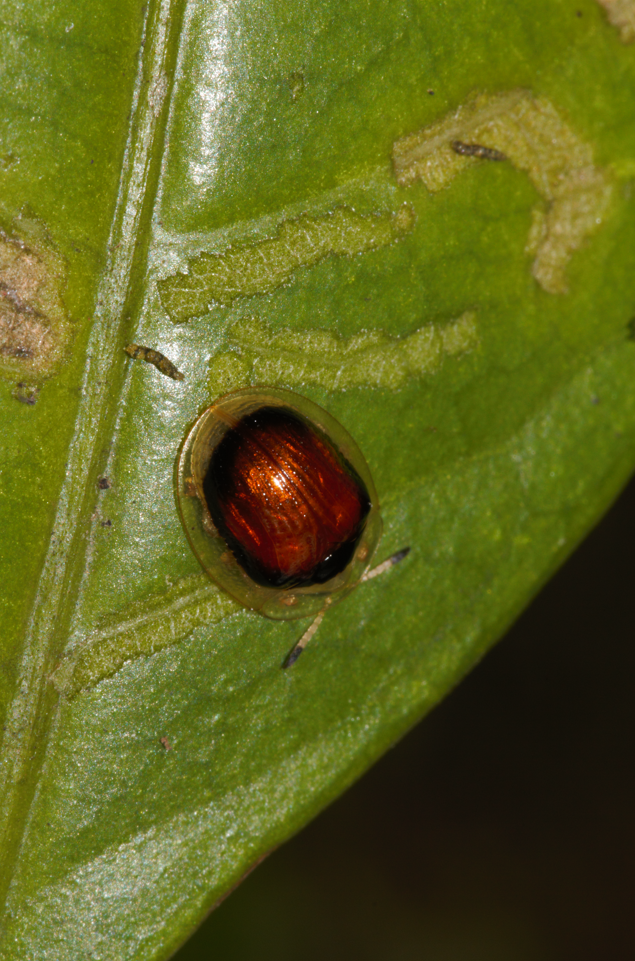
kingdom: Animalia
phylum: Arthropoda
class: Insecta
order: Coleoptera
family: Chrysomelidae
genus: Charidotis
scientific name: Charidotis cognata
